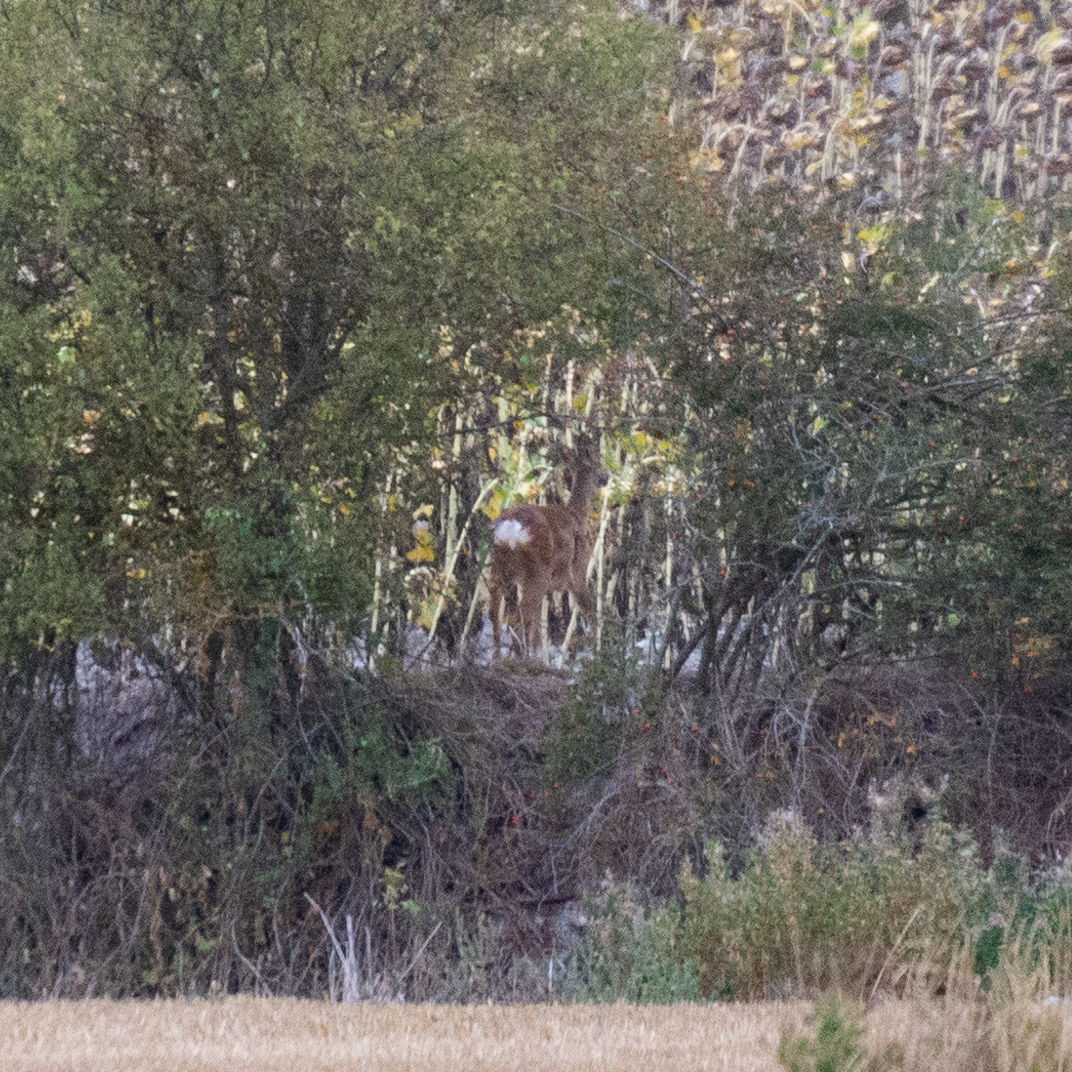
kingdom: Animalia
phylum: Chordata
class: Mammalia
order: Artiodactyla
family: Cervidae
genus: Capreolus
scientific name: Capreolus capreolus
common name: Western roe deer
